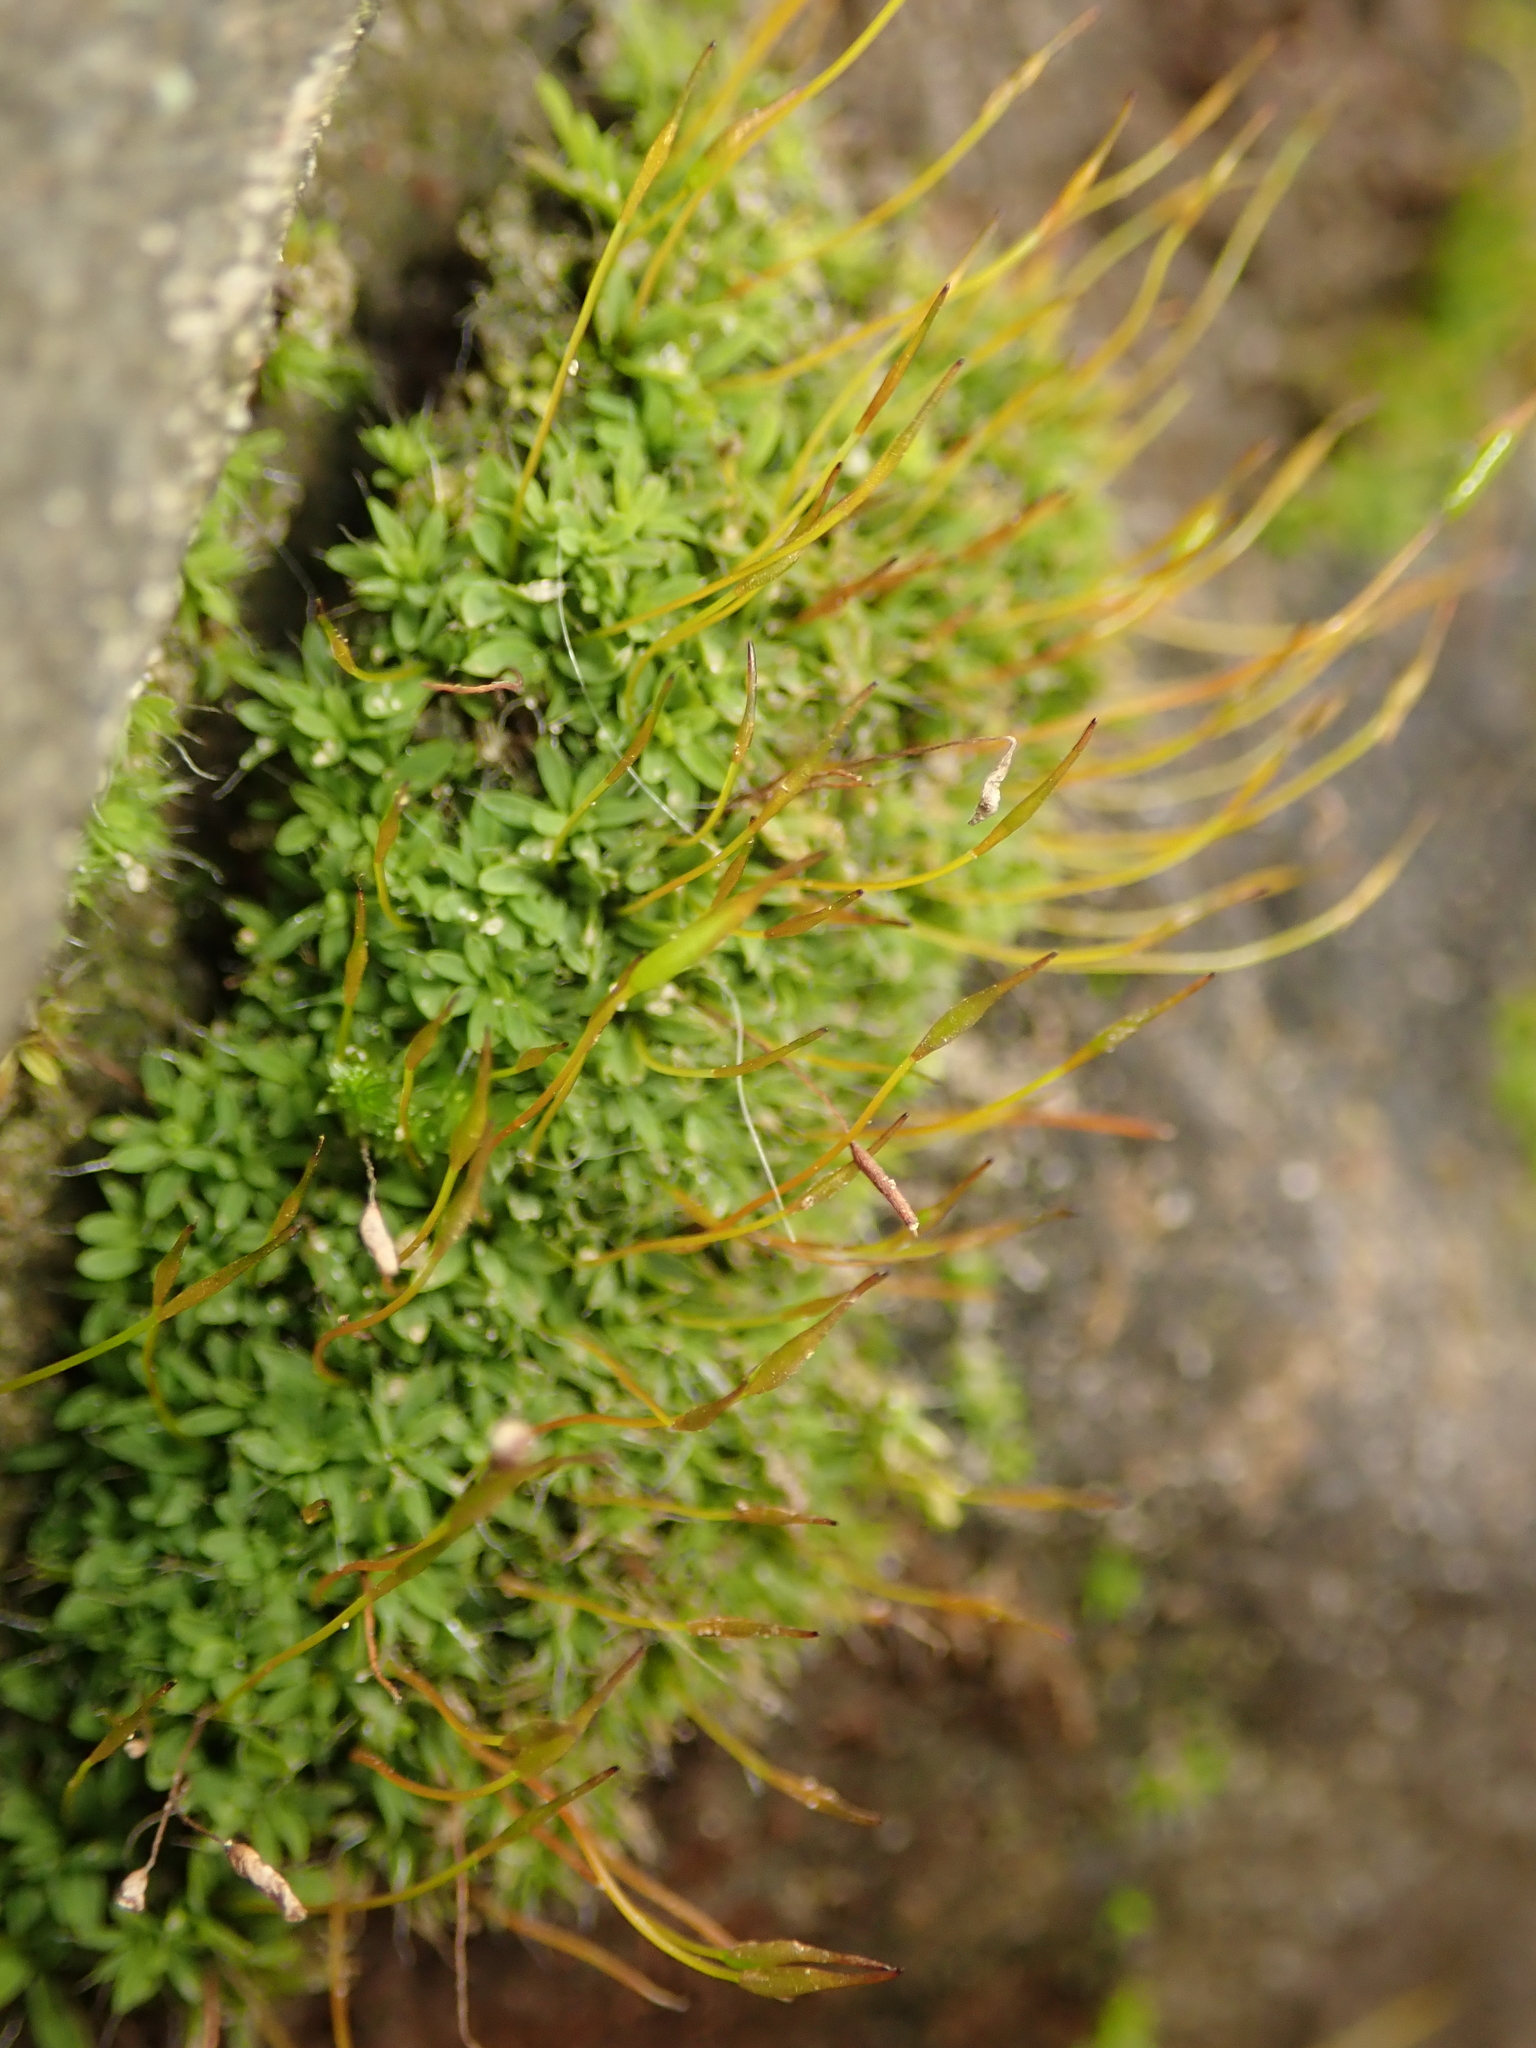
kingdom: Plantae
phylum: Bryophyta
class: Bryopsida
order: Pottiales
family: Pottiaceae
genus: Tortula
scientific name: Tortula muralis
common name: Wall screw-moss
